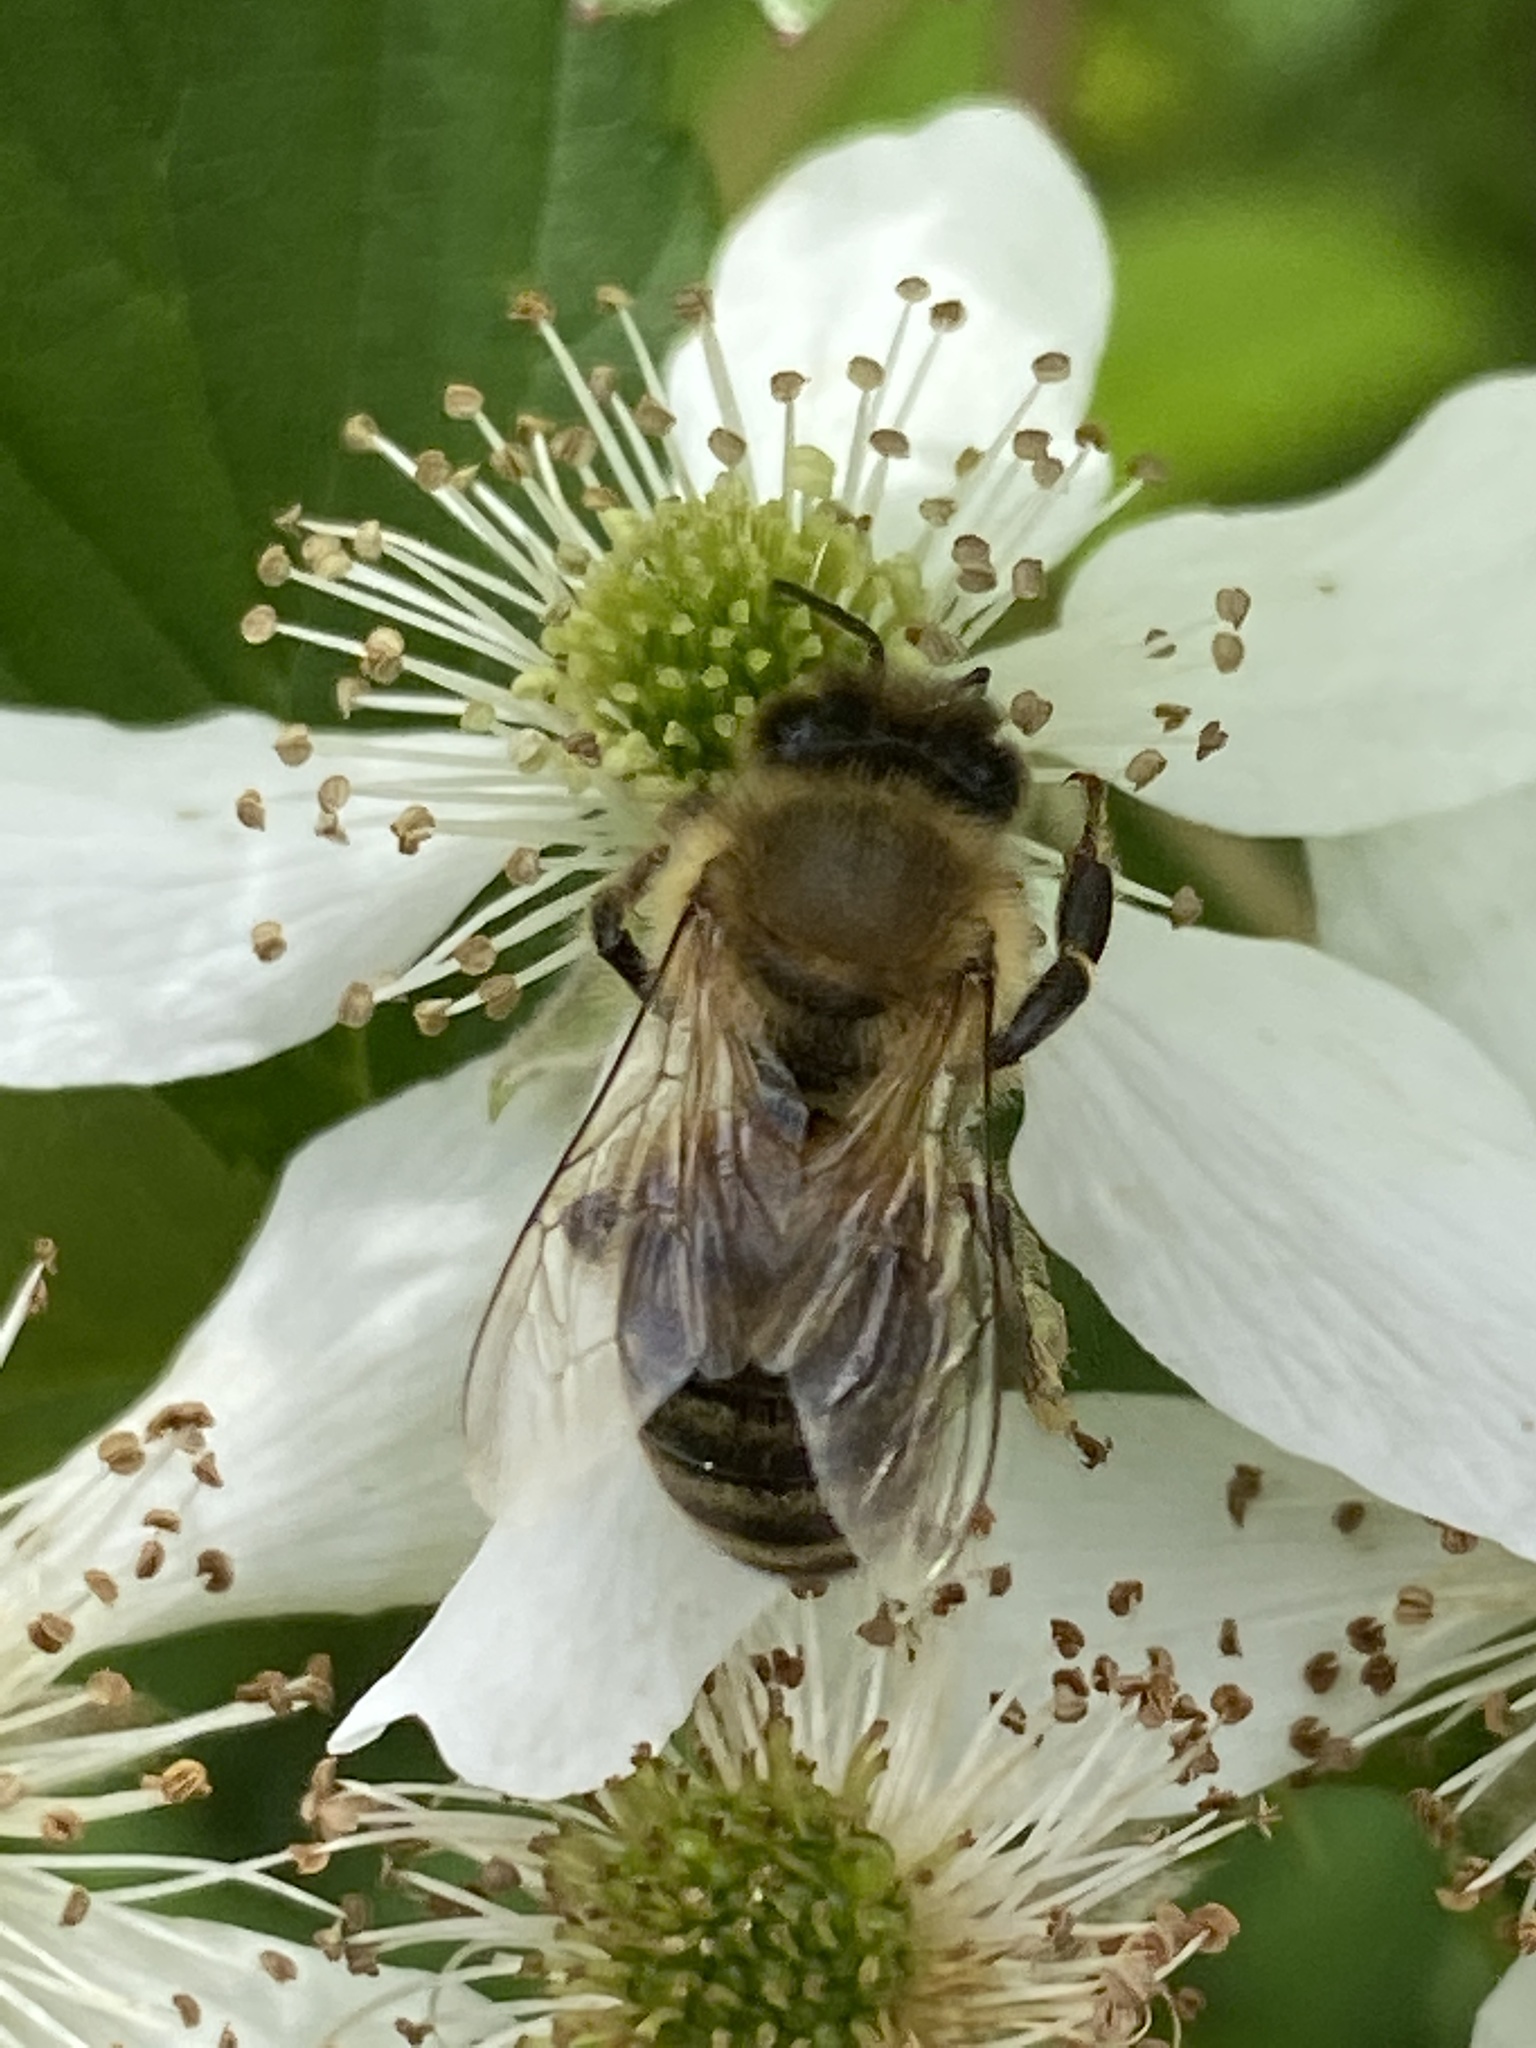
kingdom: Animalia
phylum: Arthropoda
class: Insecta
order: Hymenoptera
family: Apidae
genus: Apis
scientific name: Apis mellifera
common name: Honey bee
